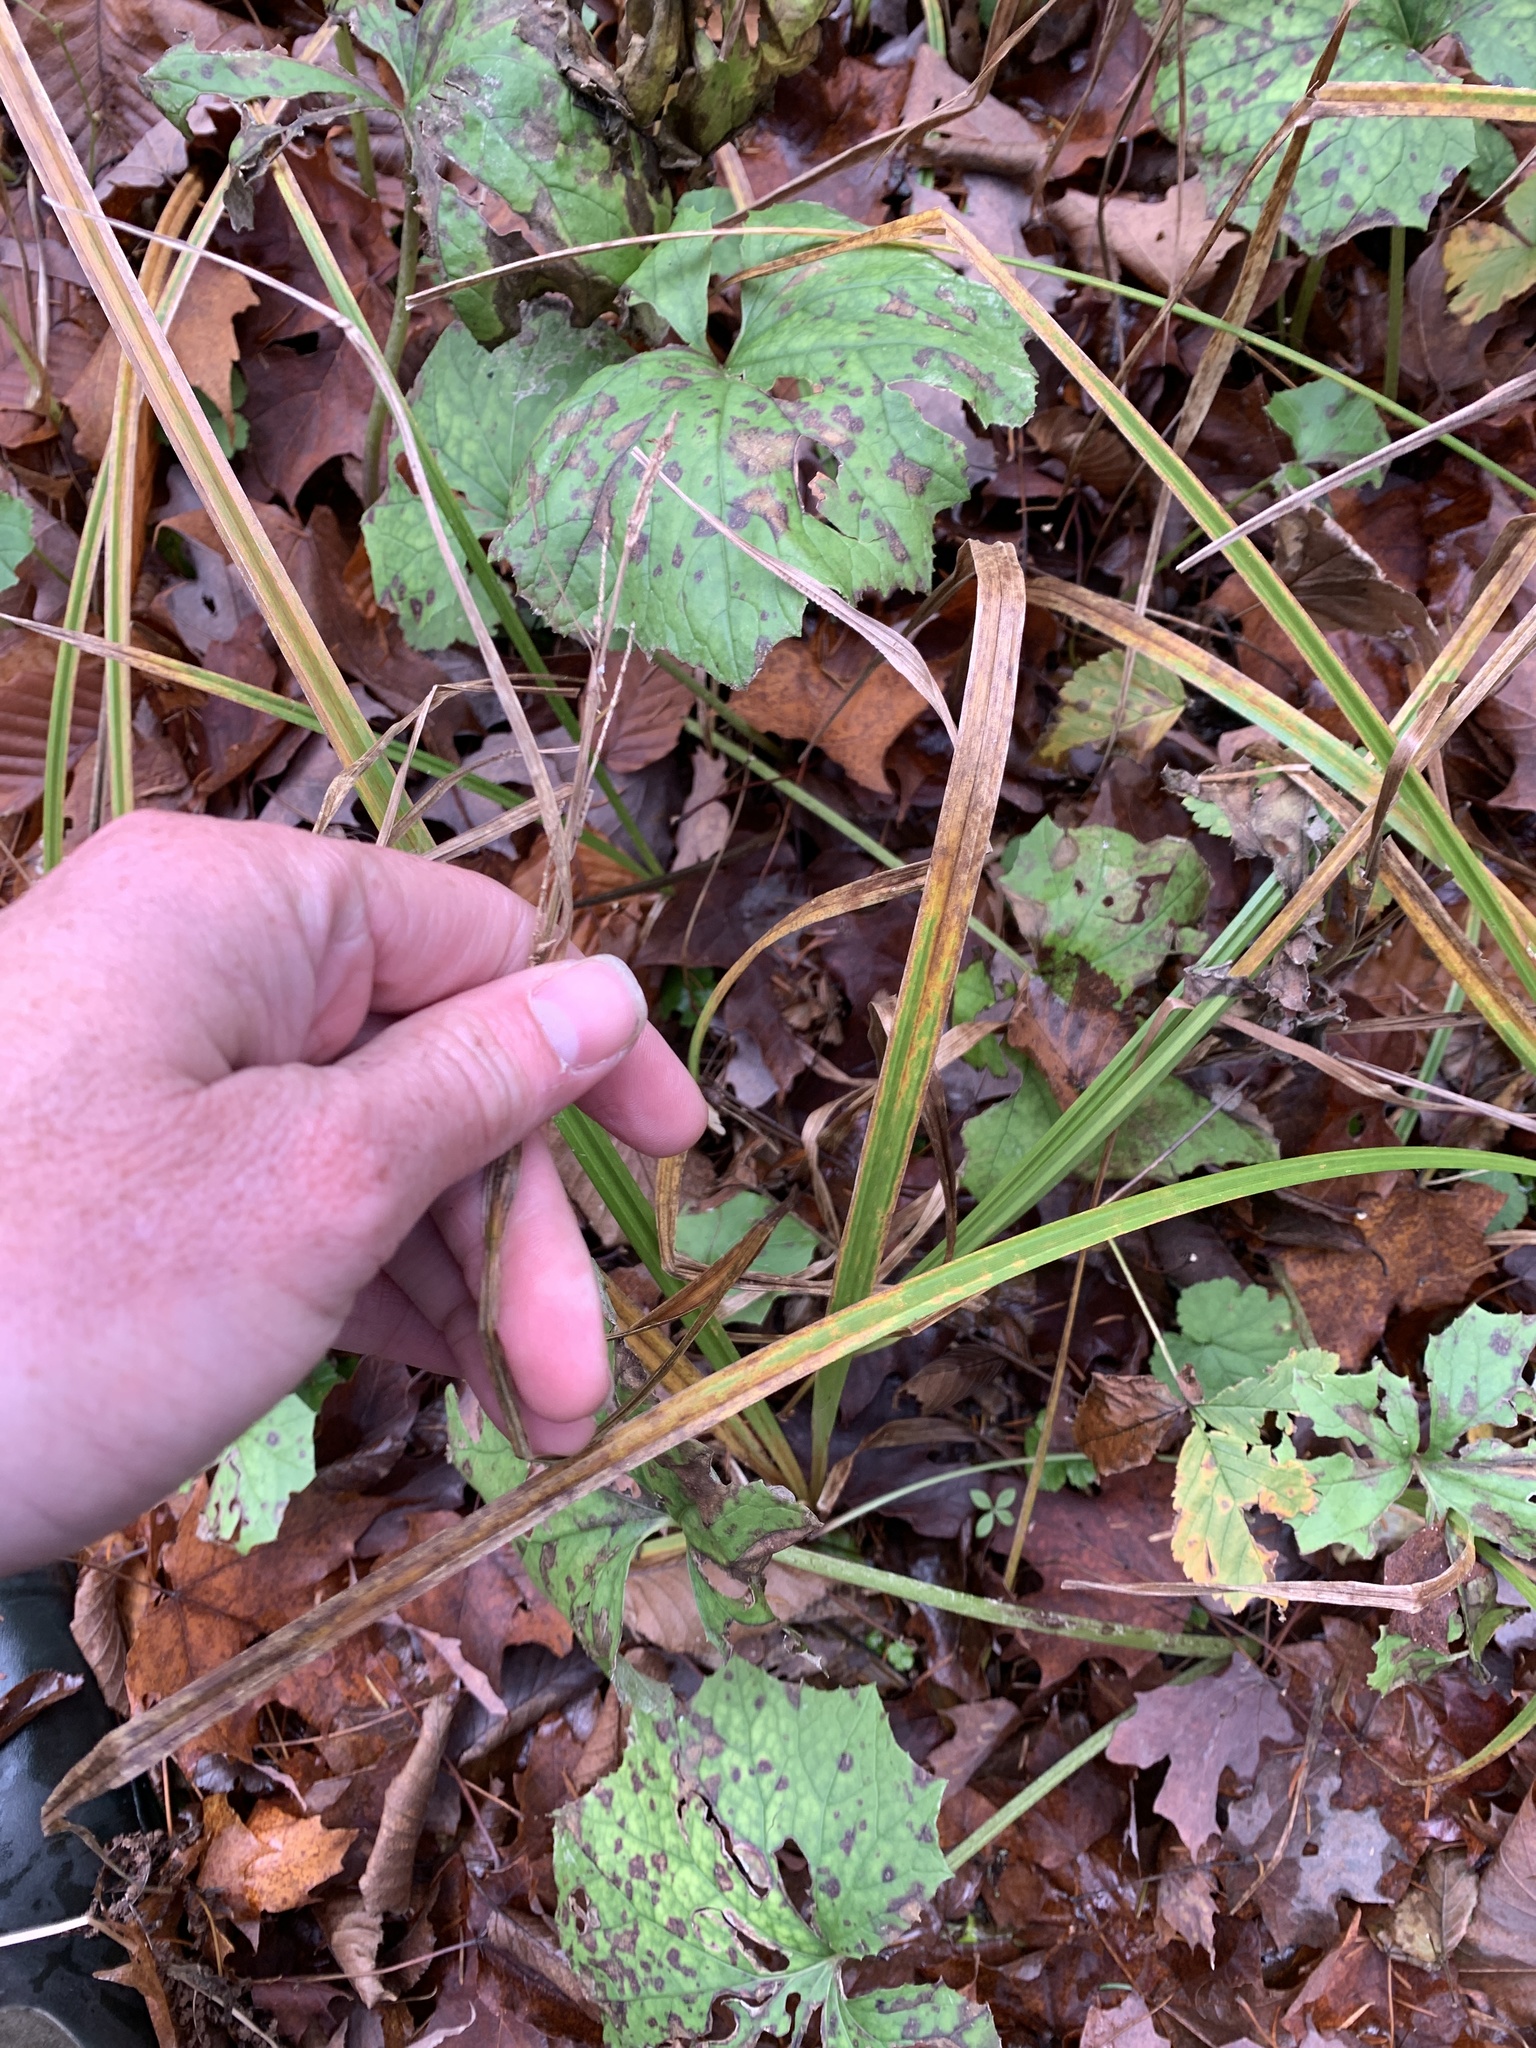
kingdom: Plantae
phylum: Tracheophyta
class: Liliopsida
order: Poales
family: Cyperaceae
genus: Carex
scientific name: Carex scabrata
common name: Eastern rough sedge
